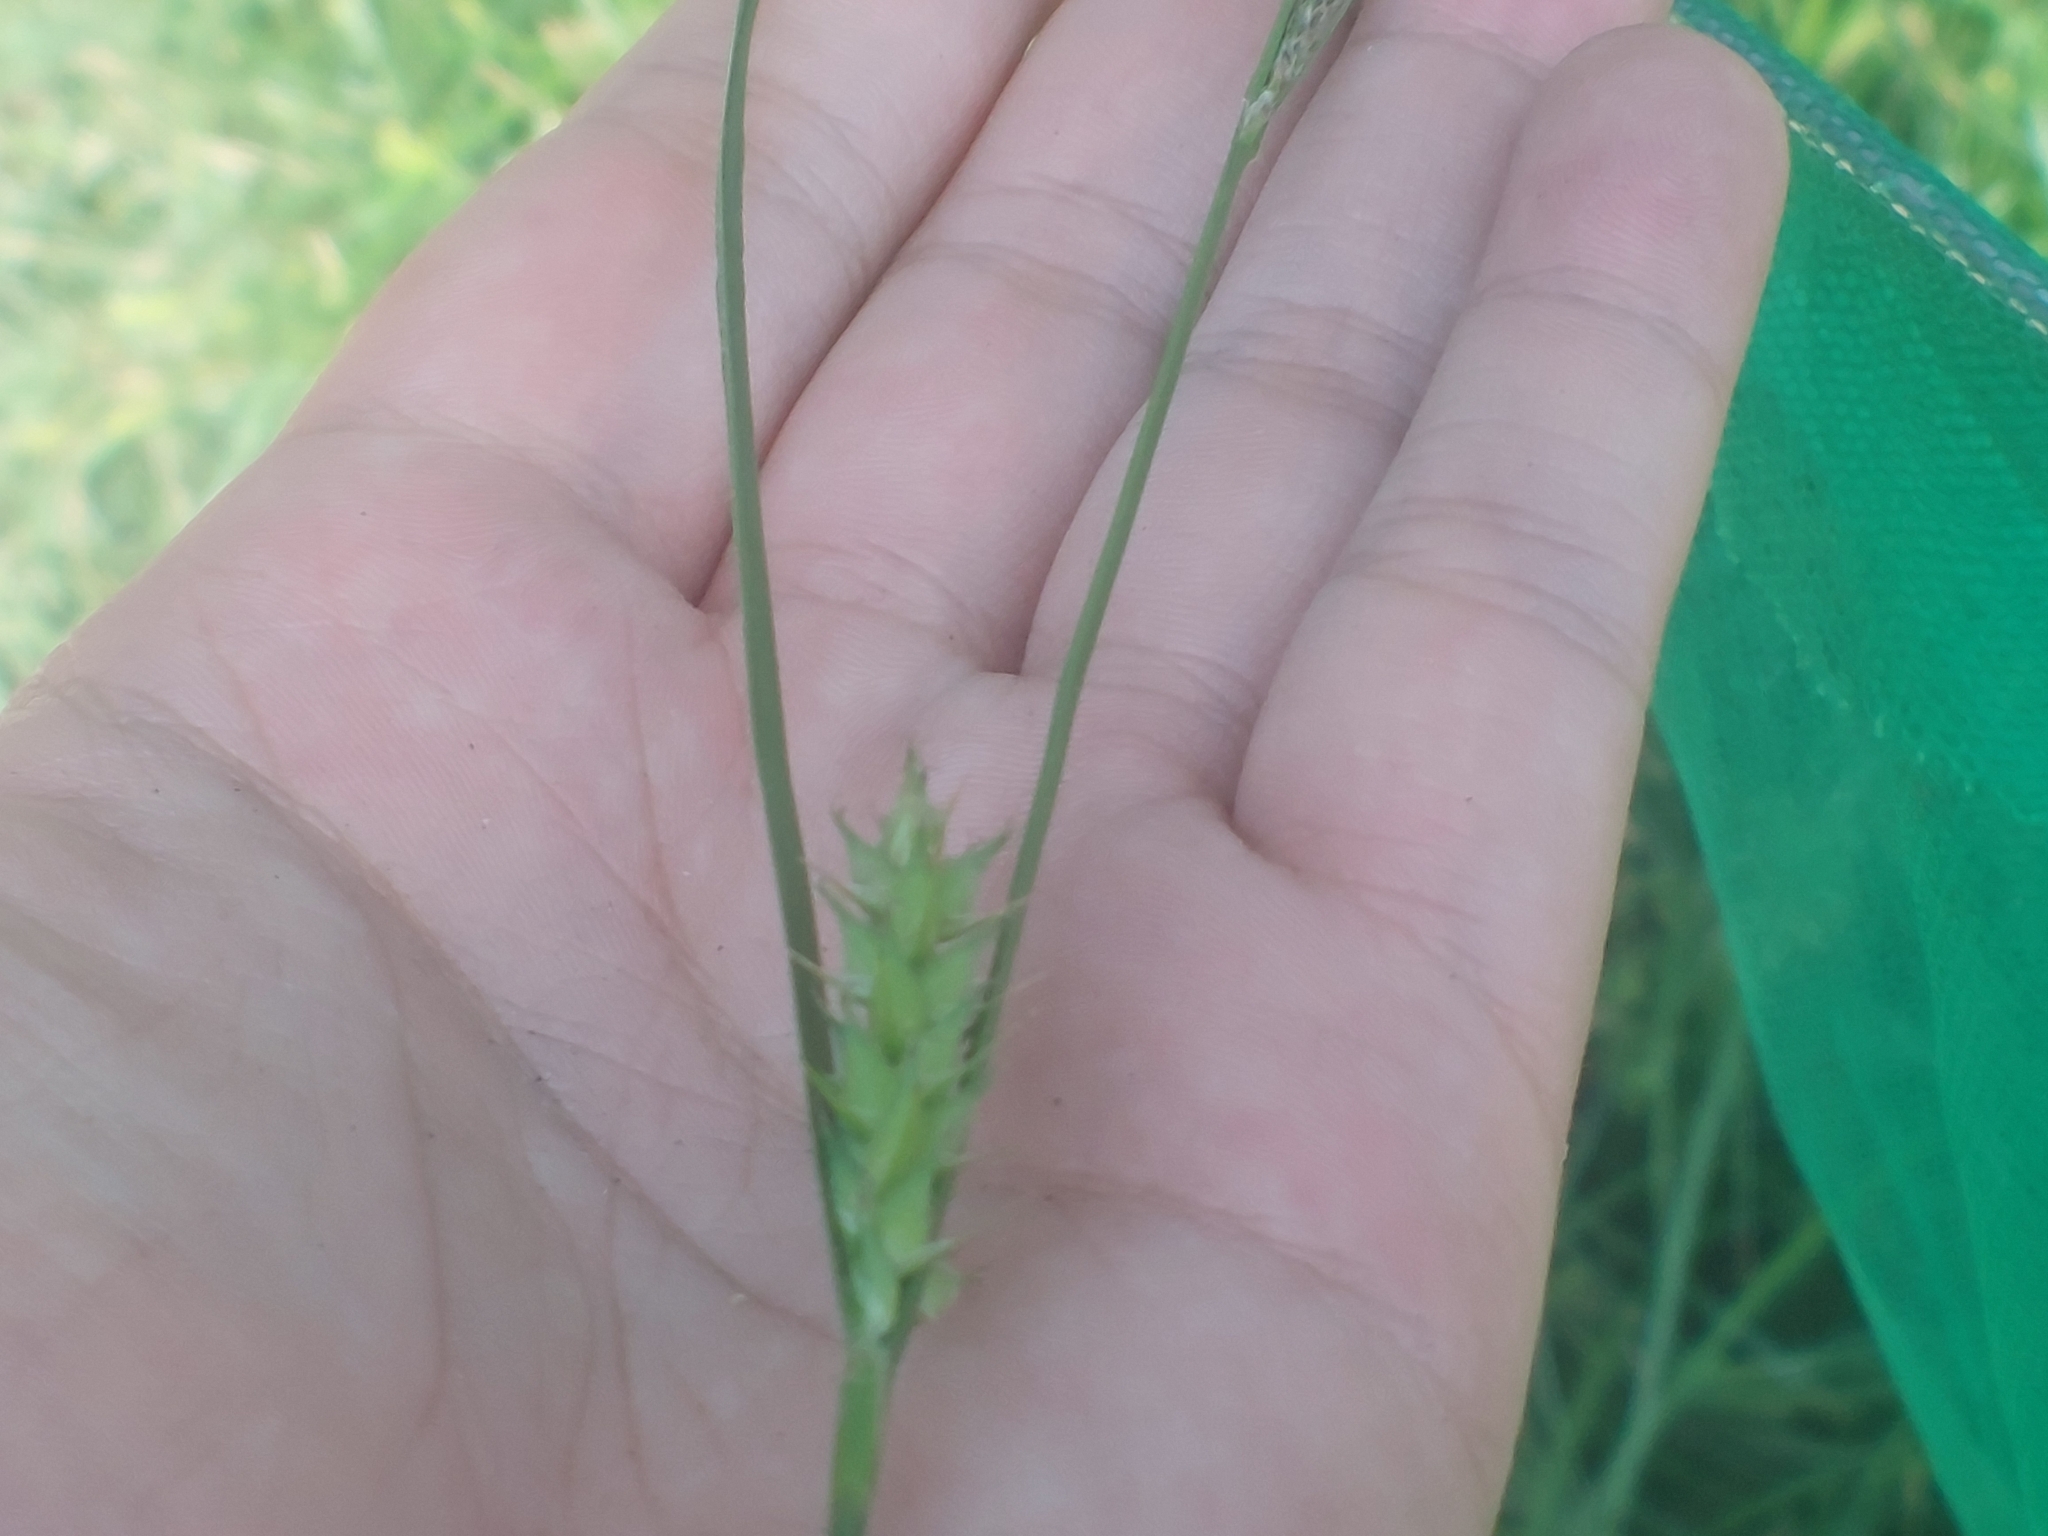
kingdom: Plantae
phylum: Tracheophyta
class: Liliopsida
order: Poales
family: Cyperaceae
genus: Carex
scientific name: Carex hirta
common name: Hairy sedge
